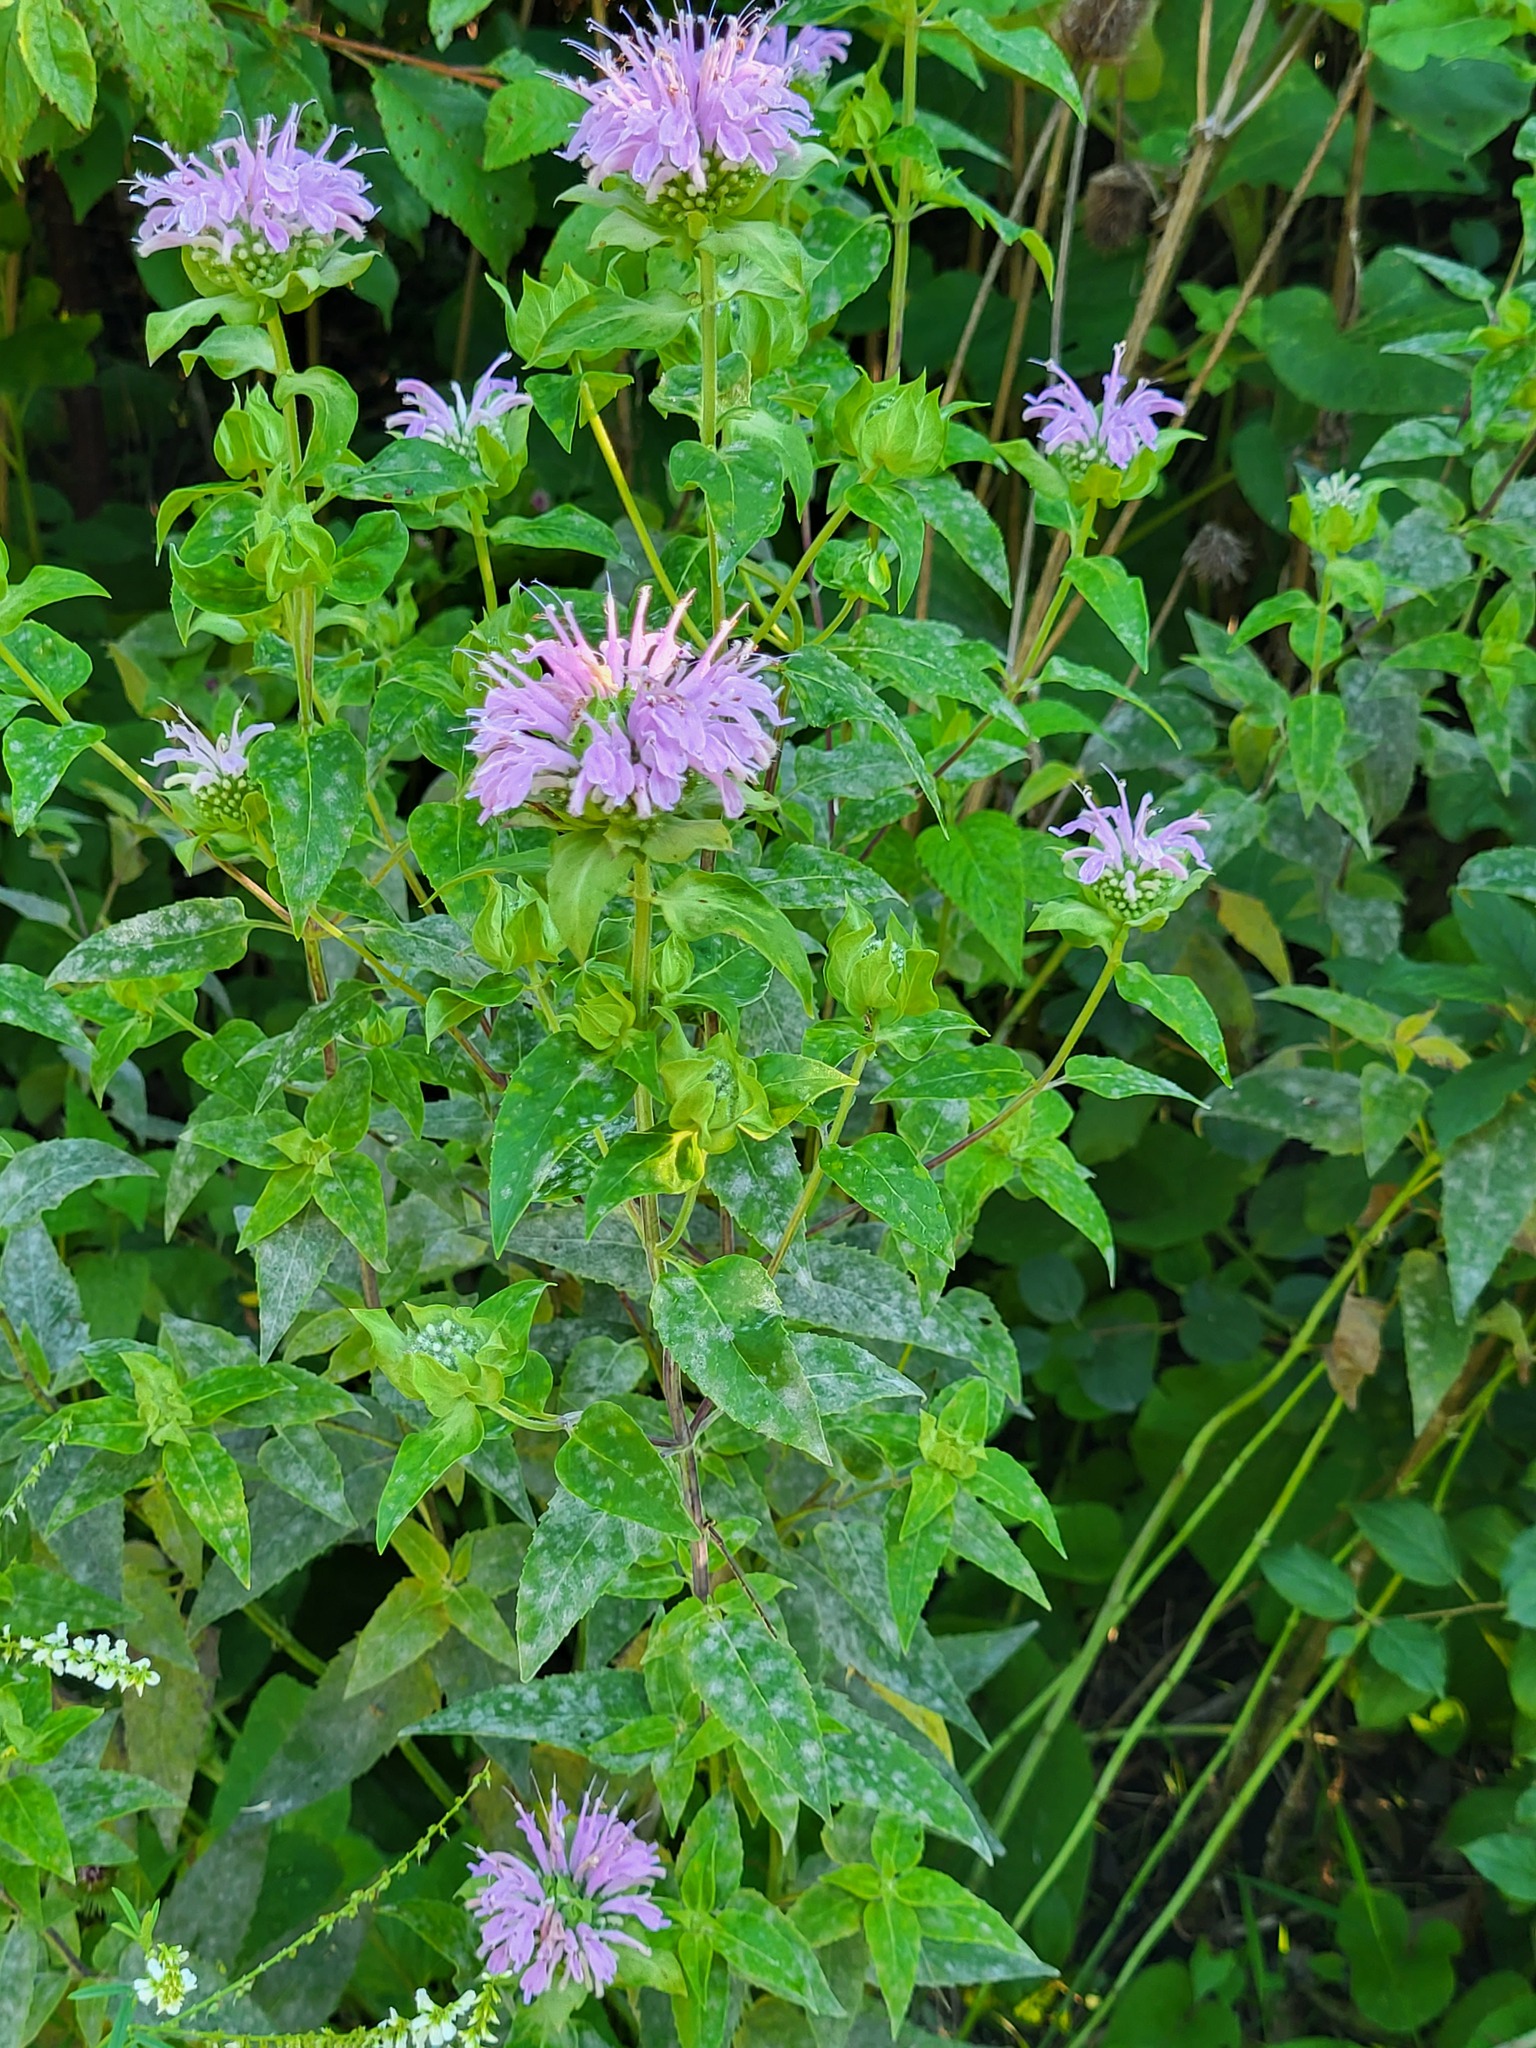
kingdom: Plantae
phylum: Tracheophyta
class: Magnoliopsida
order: Lamiales
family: Lamiaceae
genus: Monarda
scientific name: Monarda fistulosa
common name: Purple beebalm
